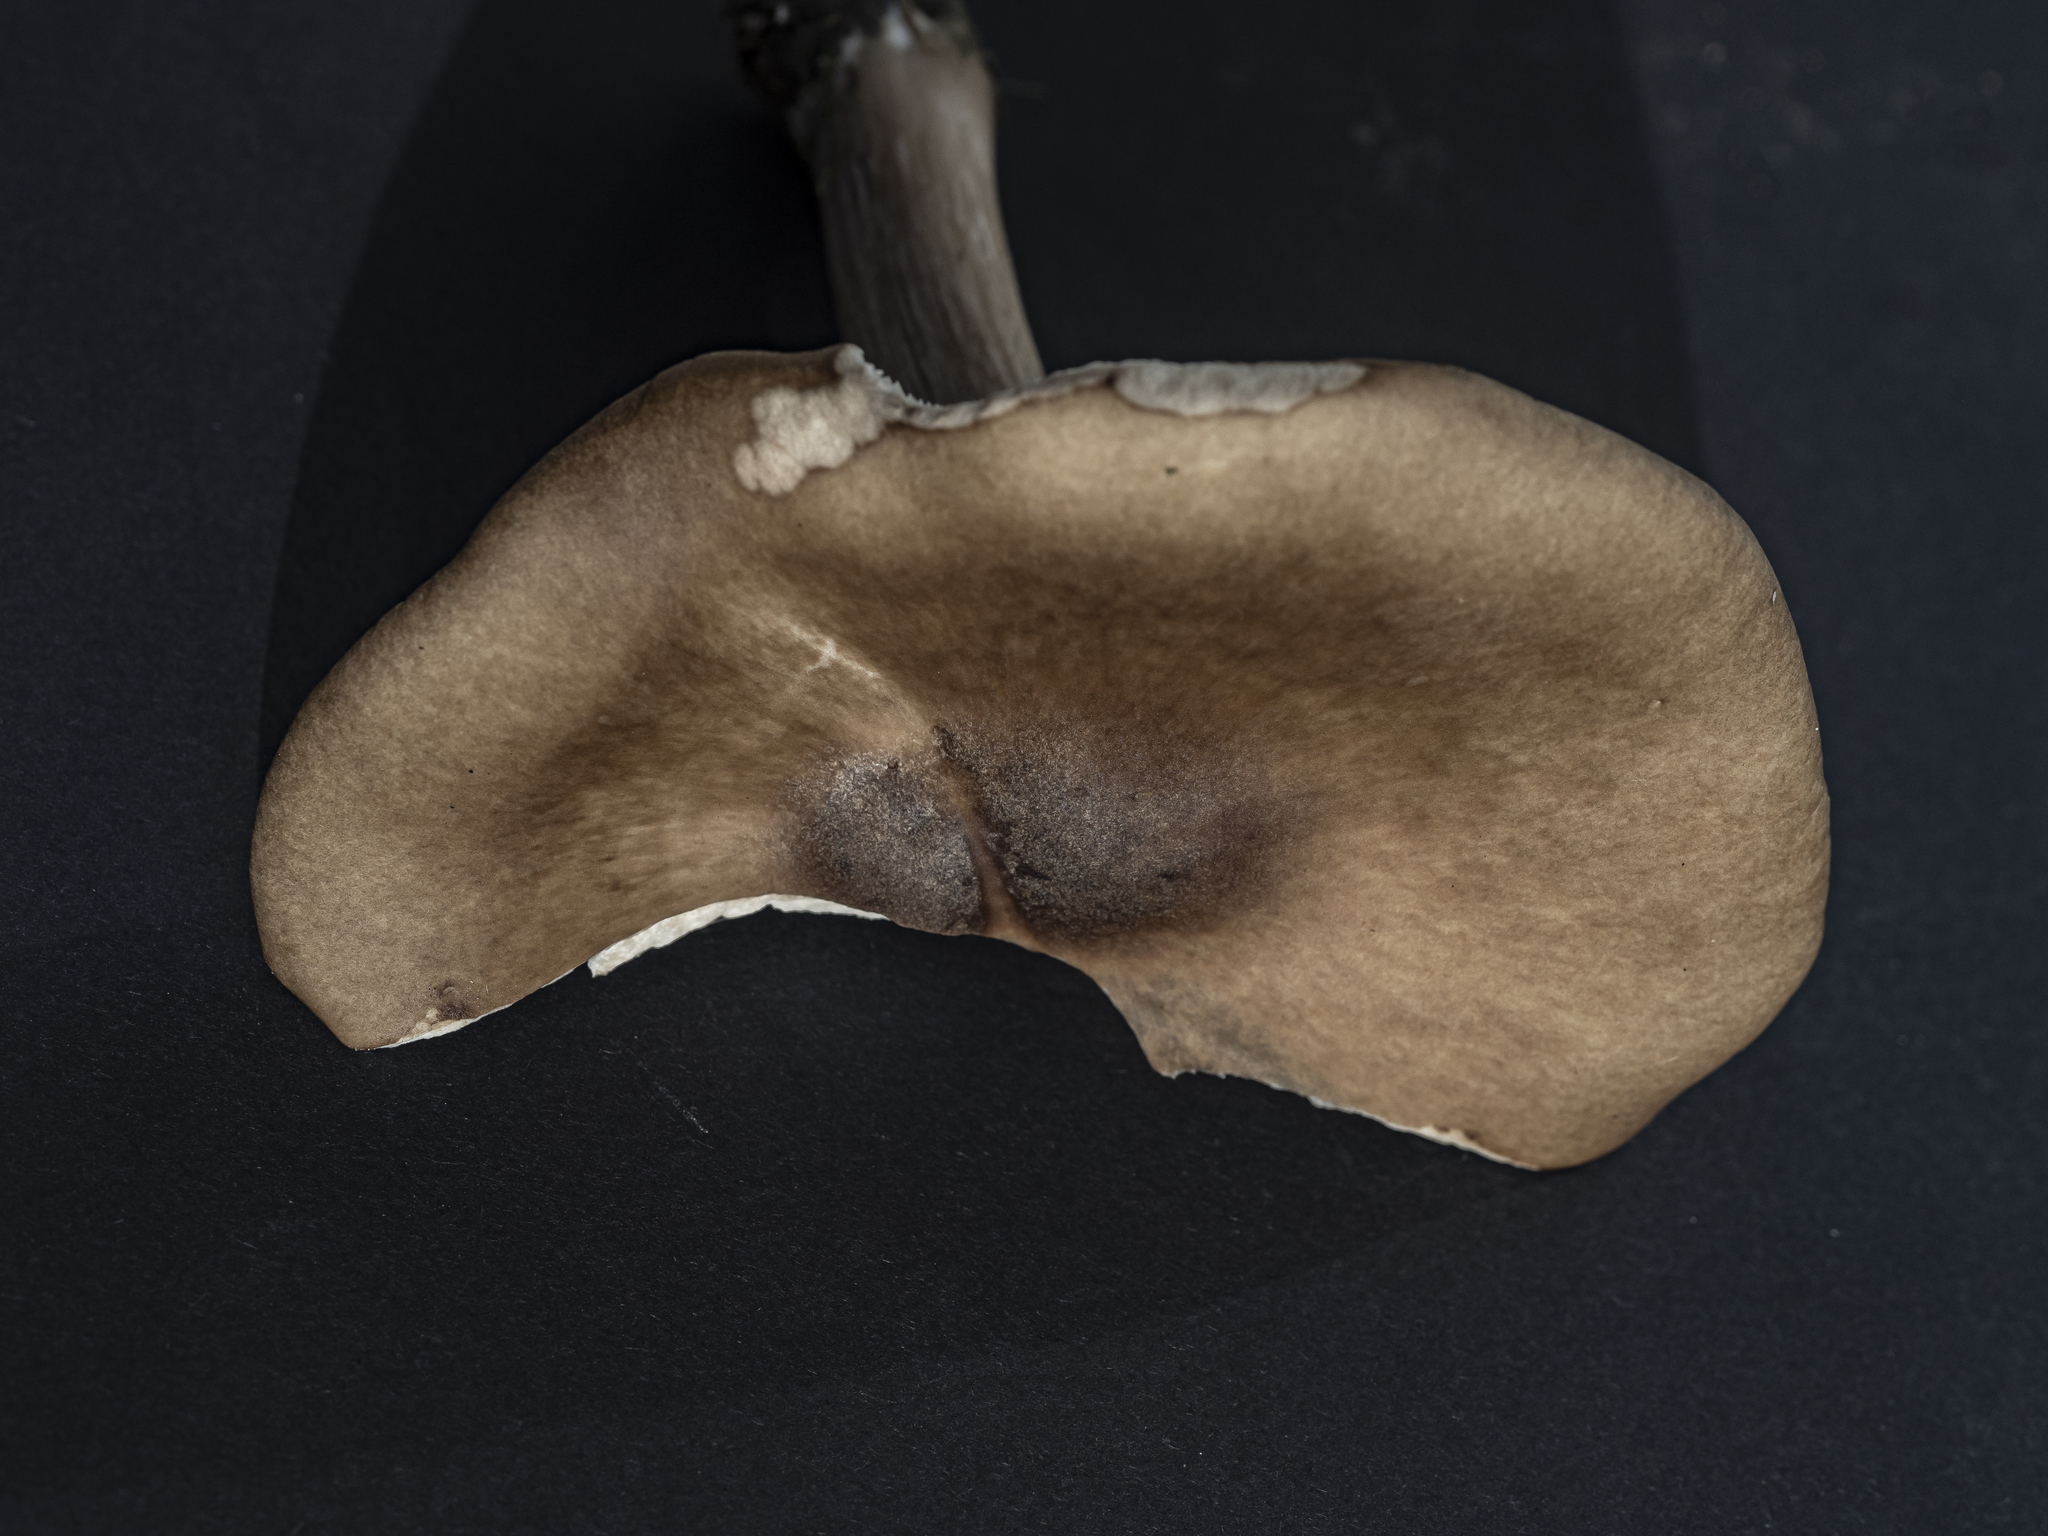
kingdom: Fungi
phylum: Basidiomycota
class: Agaricomycetes
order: Agaricales
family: Tricholomataceae
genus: Melanoleuca
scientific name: Melanoleuca grammopodia
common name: Grooved cavalier
